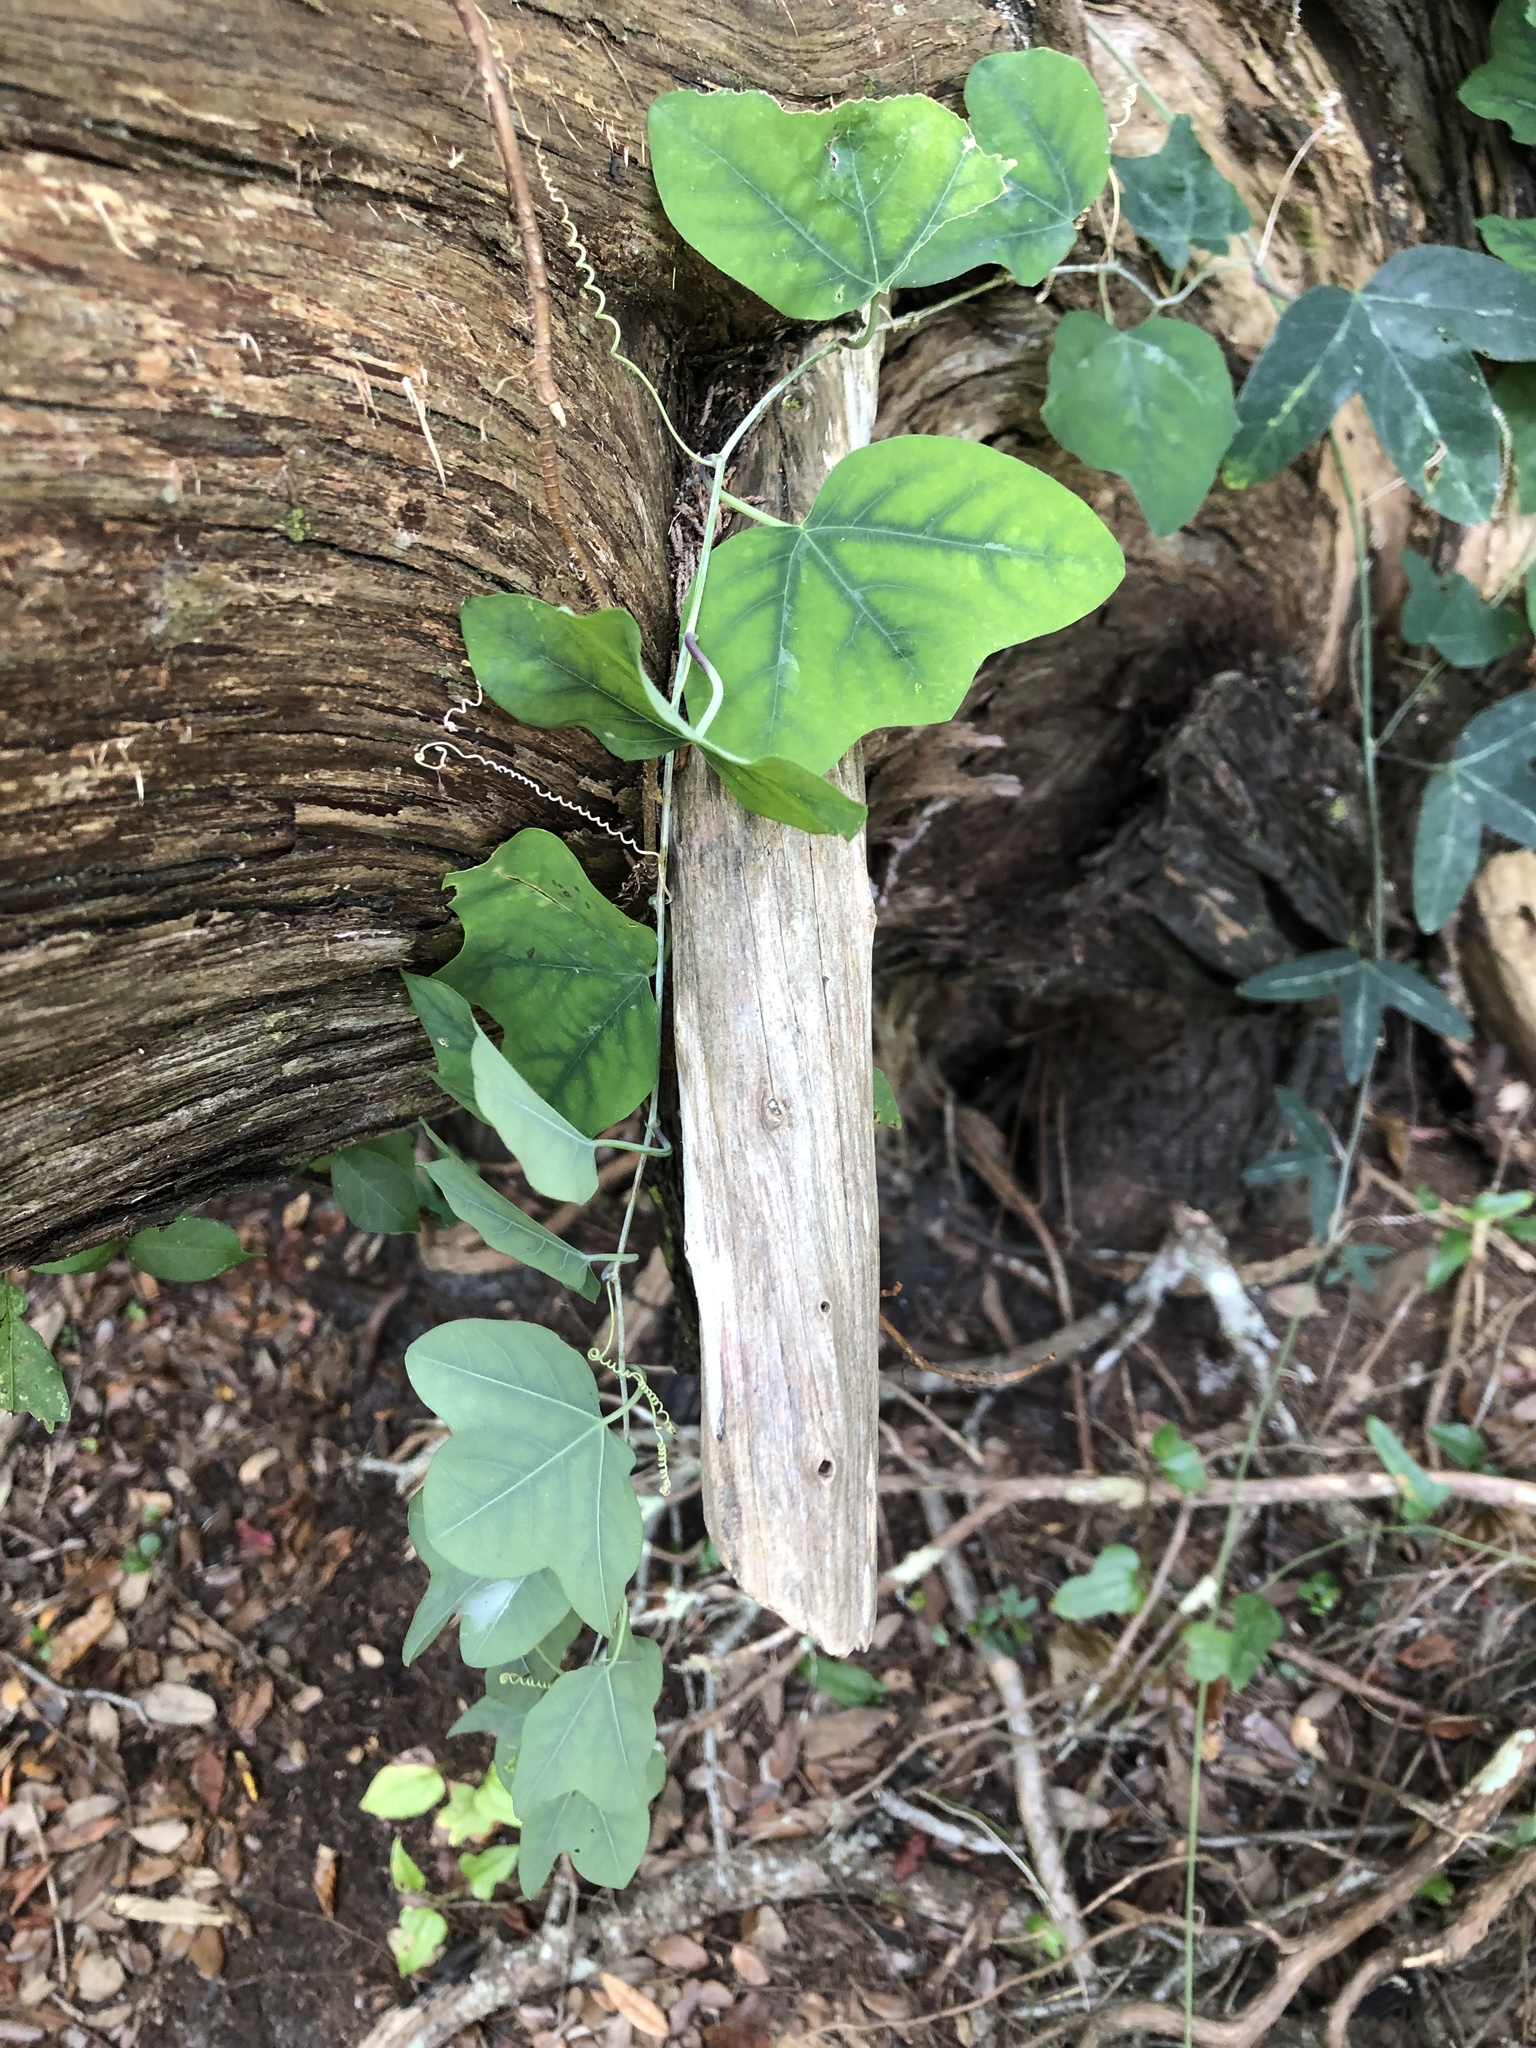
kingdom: Plantae
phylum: Tracheophyta
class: Magnoliopsida
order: Malpighiales
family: Passifloraceae
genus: Passiflora
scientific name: Passiflora lutea
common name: Yellow passionflower
